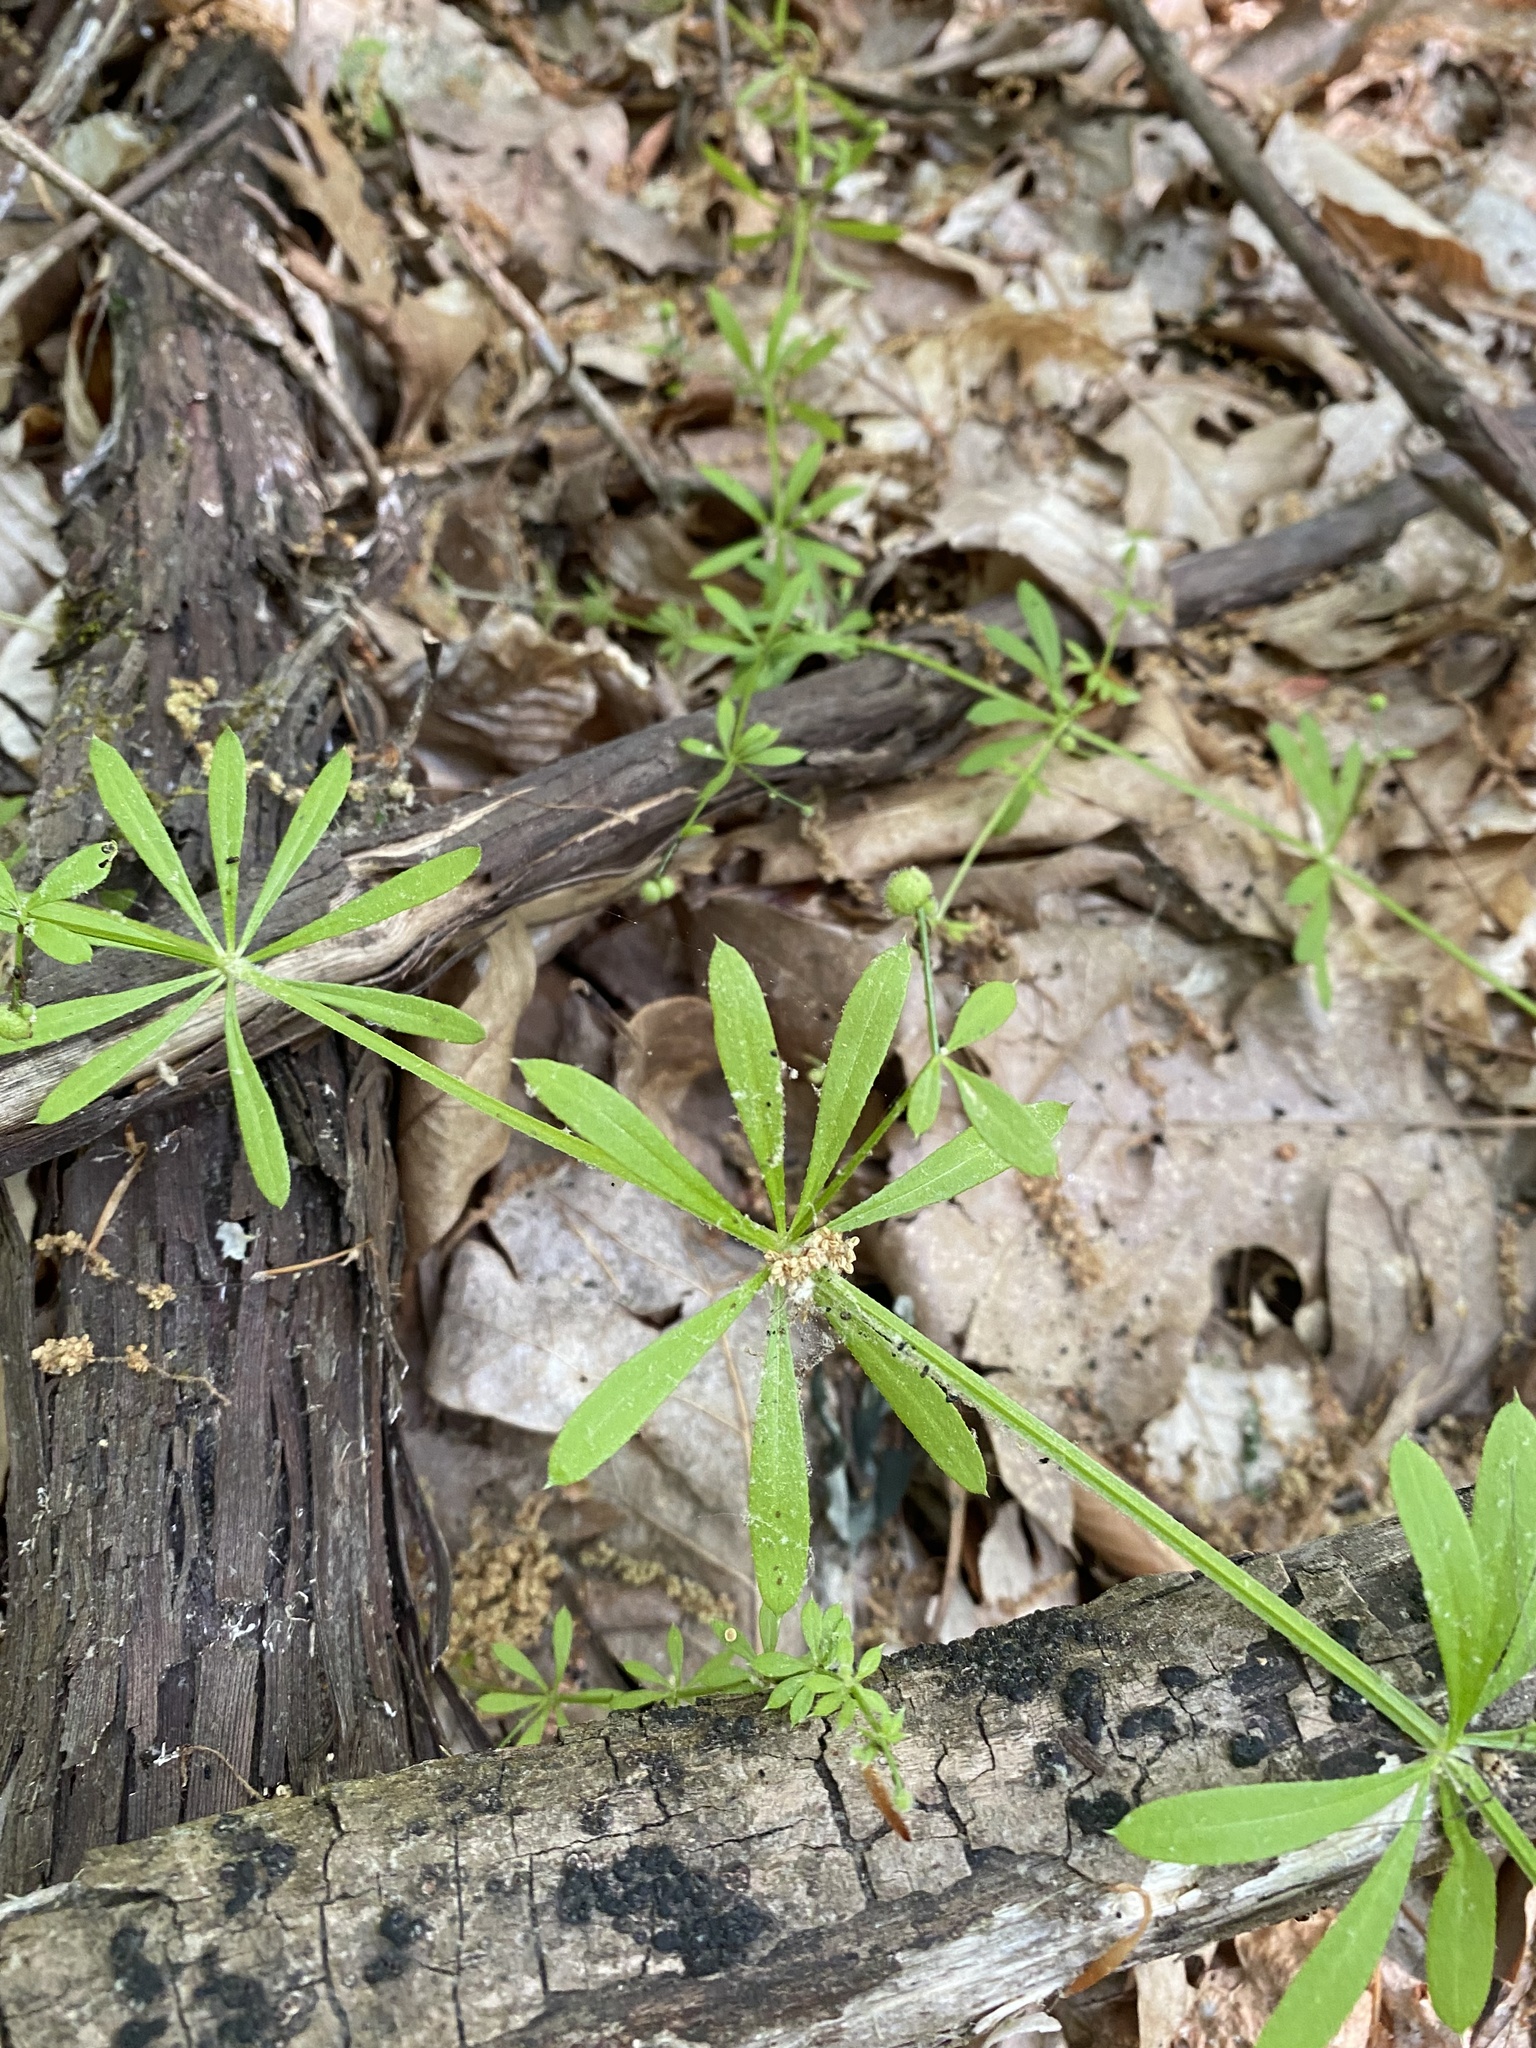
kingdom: Plantae
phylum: Tracheophyta
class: Magnoliopsida
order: Gentianales
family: Rubiaceae
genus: Galium
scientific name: Galium aparine
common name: Cleavers
